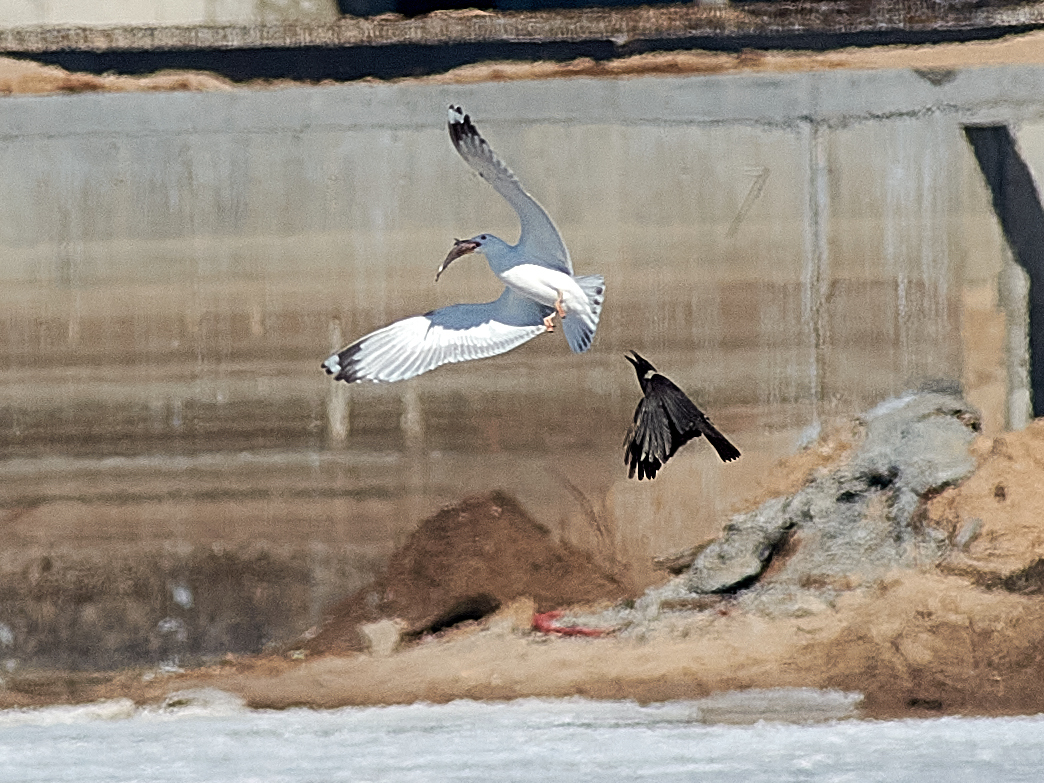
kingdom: Animalia
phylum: Chordata
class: Aves
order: Charadriiformes
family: Laridae
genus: Larus
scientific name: Larus cachinnans
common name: Caspian gull
